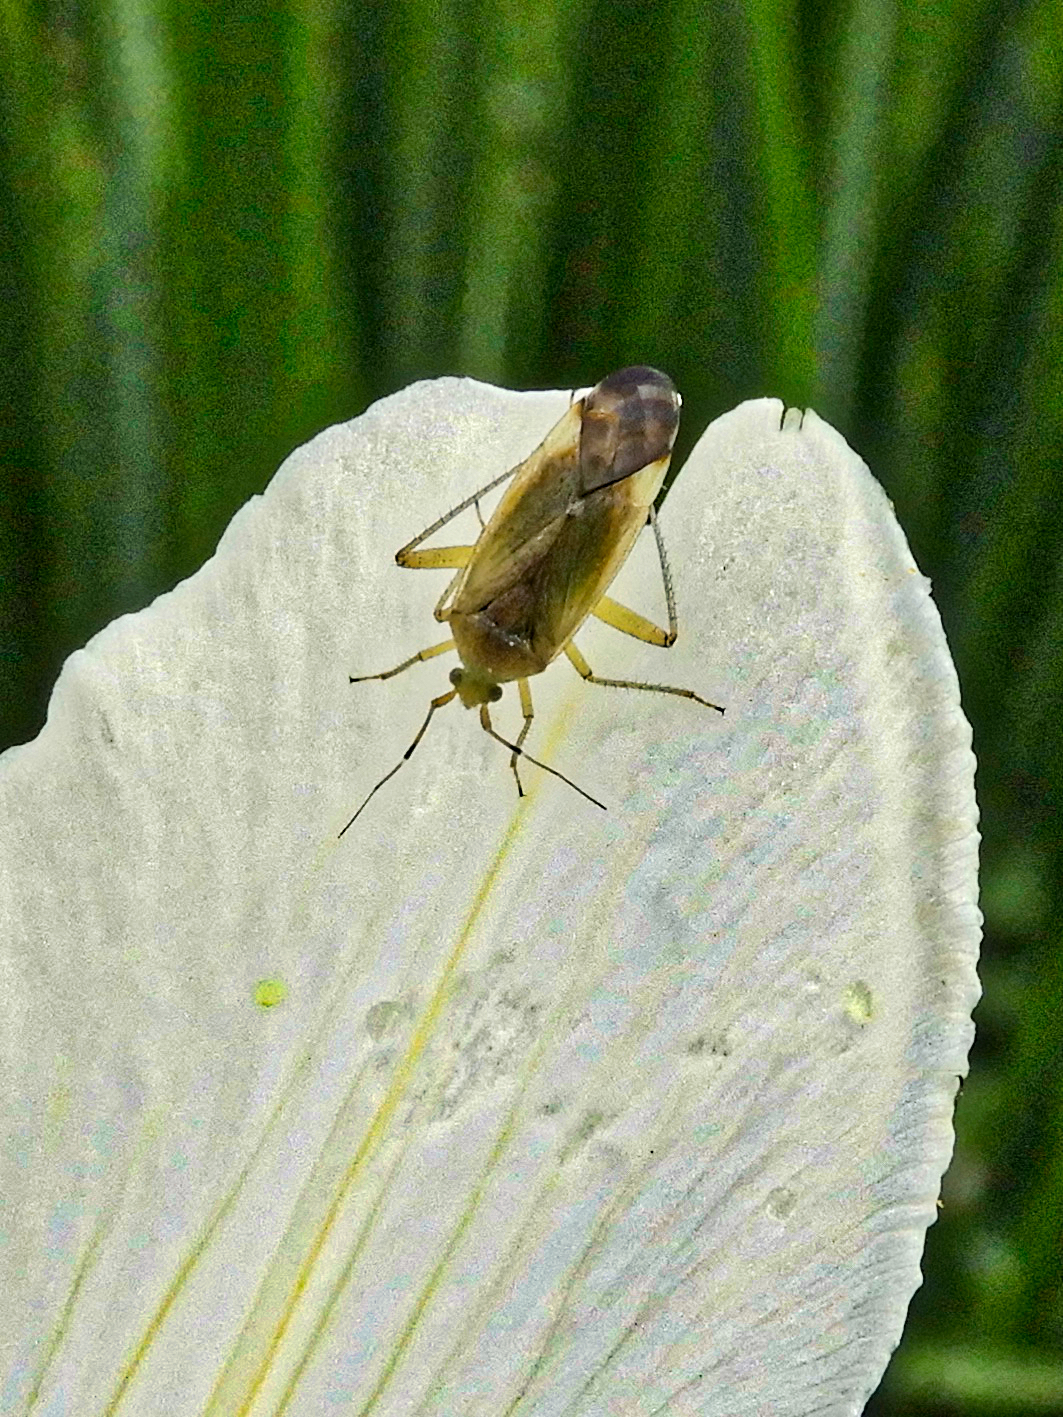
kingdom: Animalia
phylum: Arthropoda
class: Insecta
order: Hemiptera
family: Miridae
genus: Closterotomus
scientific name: Closterotomus annulus
